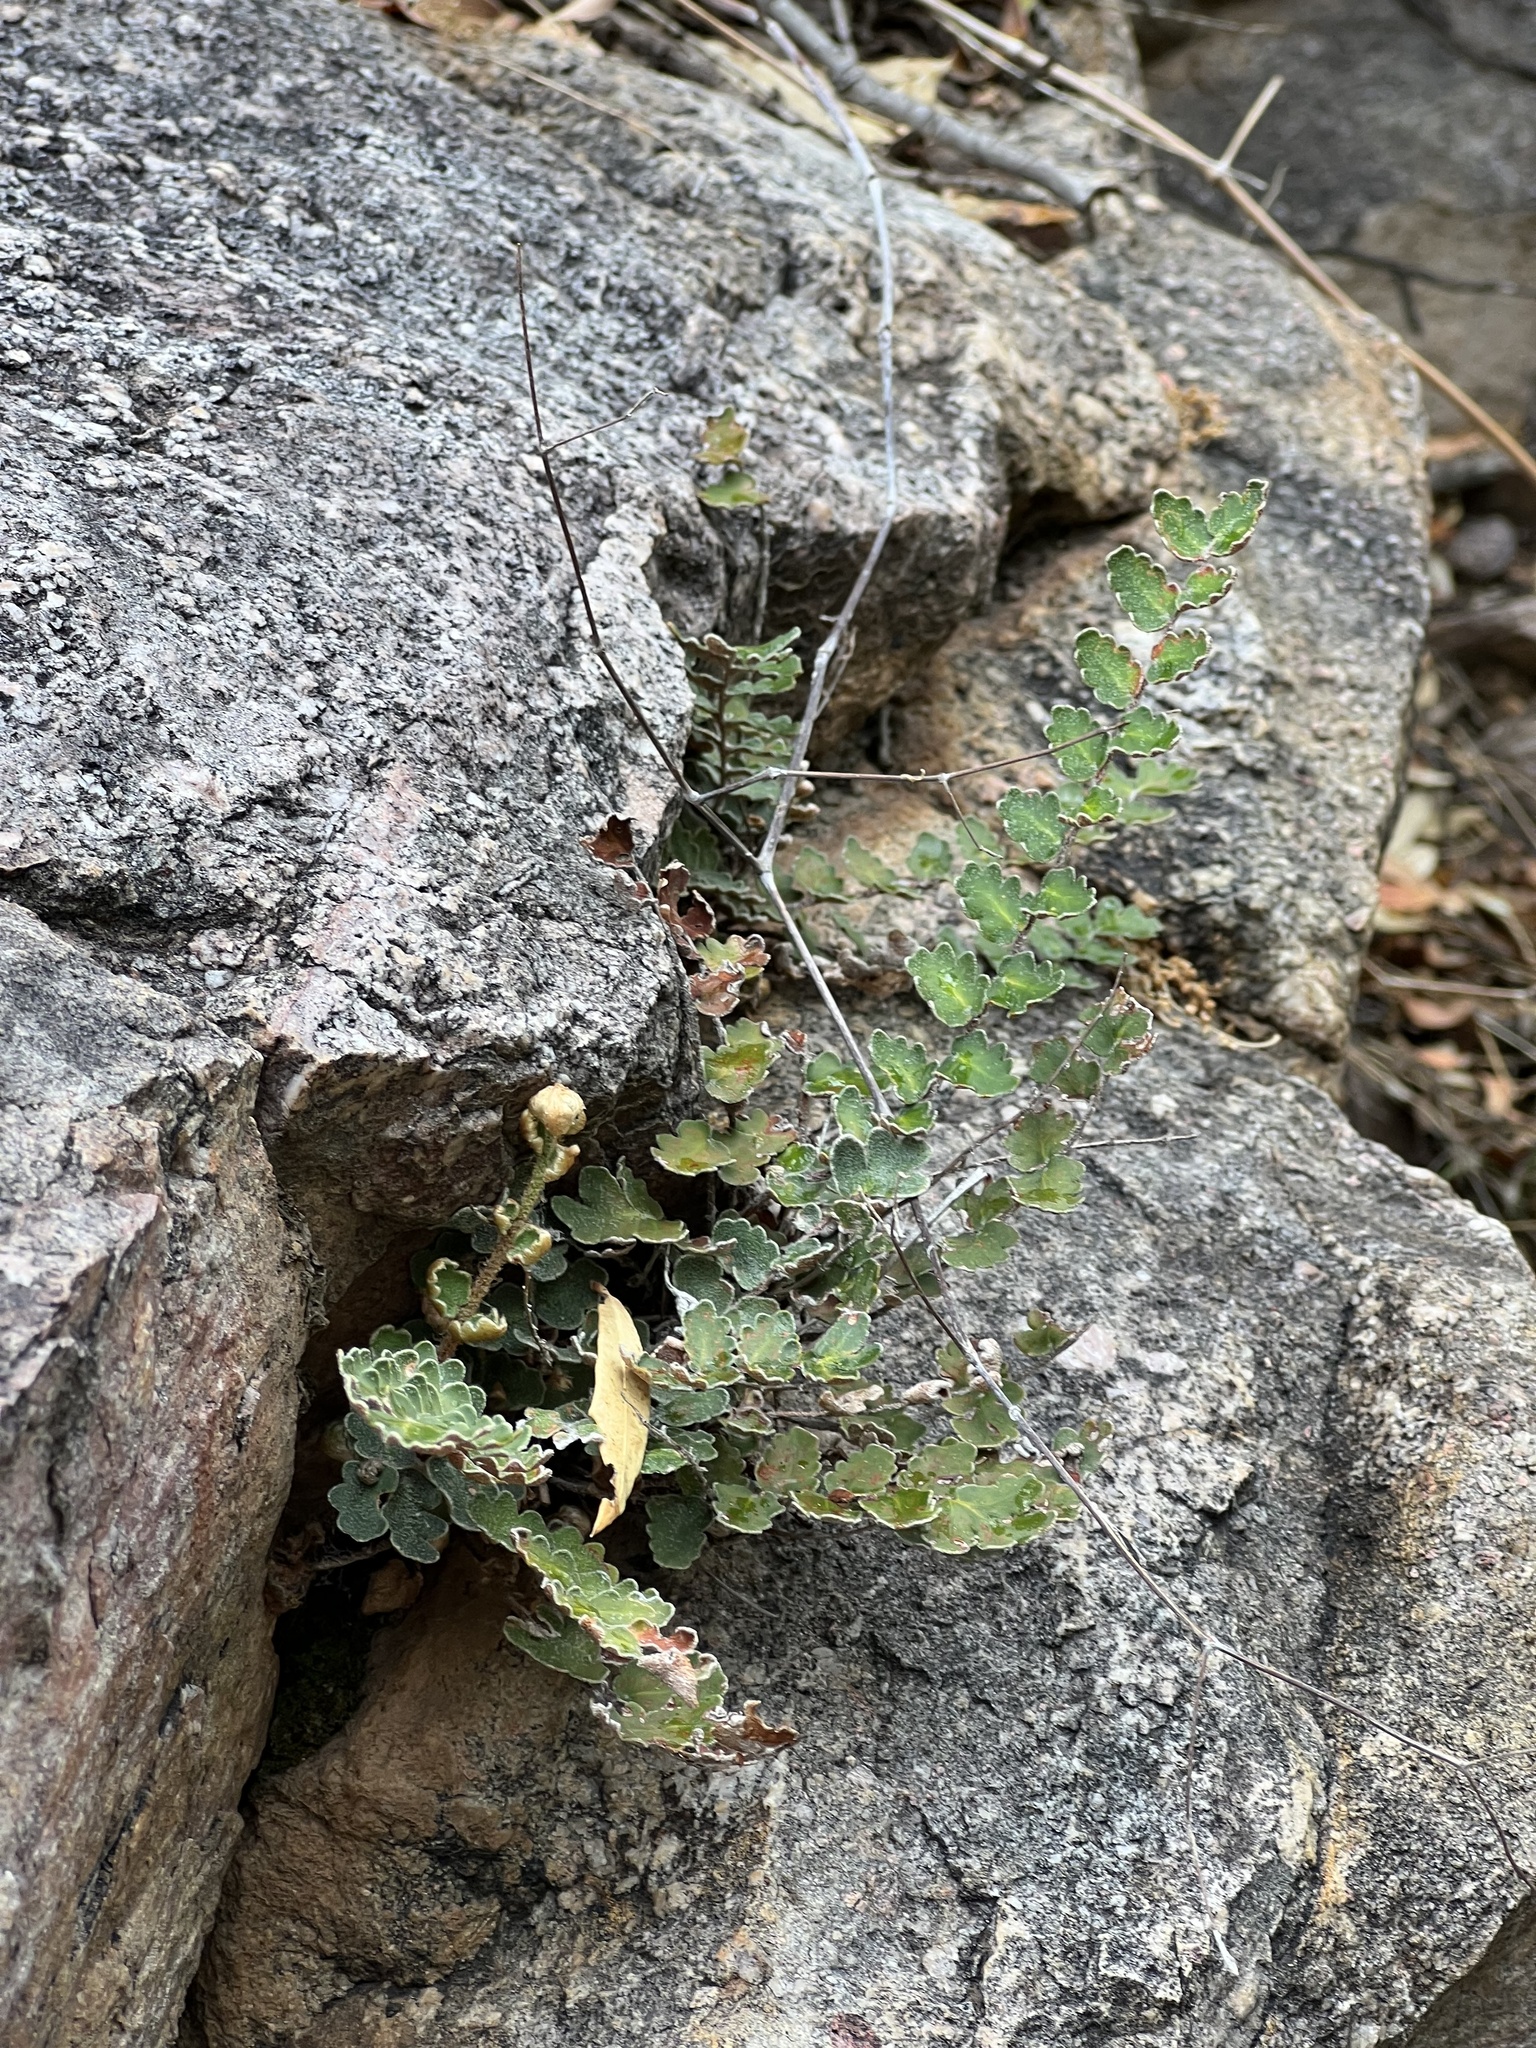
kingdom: Plantae
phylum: Tracheophyta
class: Polypodiopsida
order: Polypodiales
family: Pteridaceae
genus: Astrolepis
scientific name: Astrolepis sinuata
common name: Wavy scaly cloakfern
